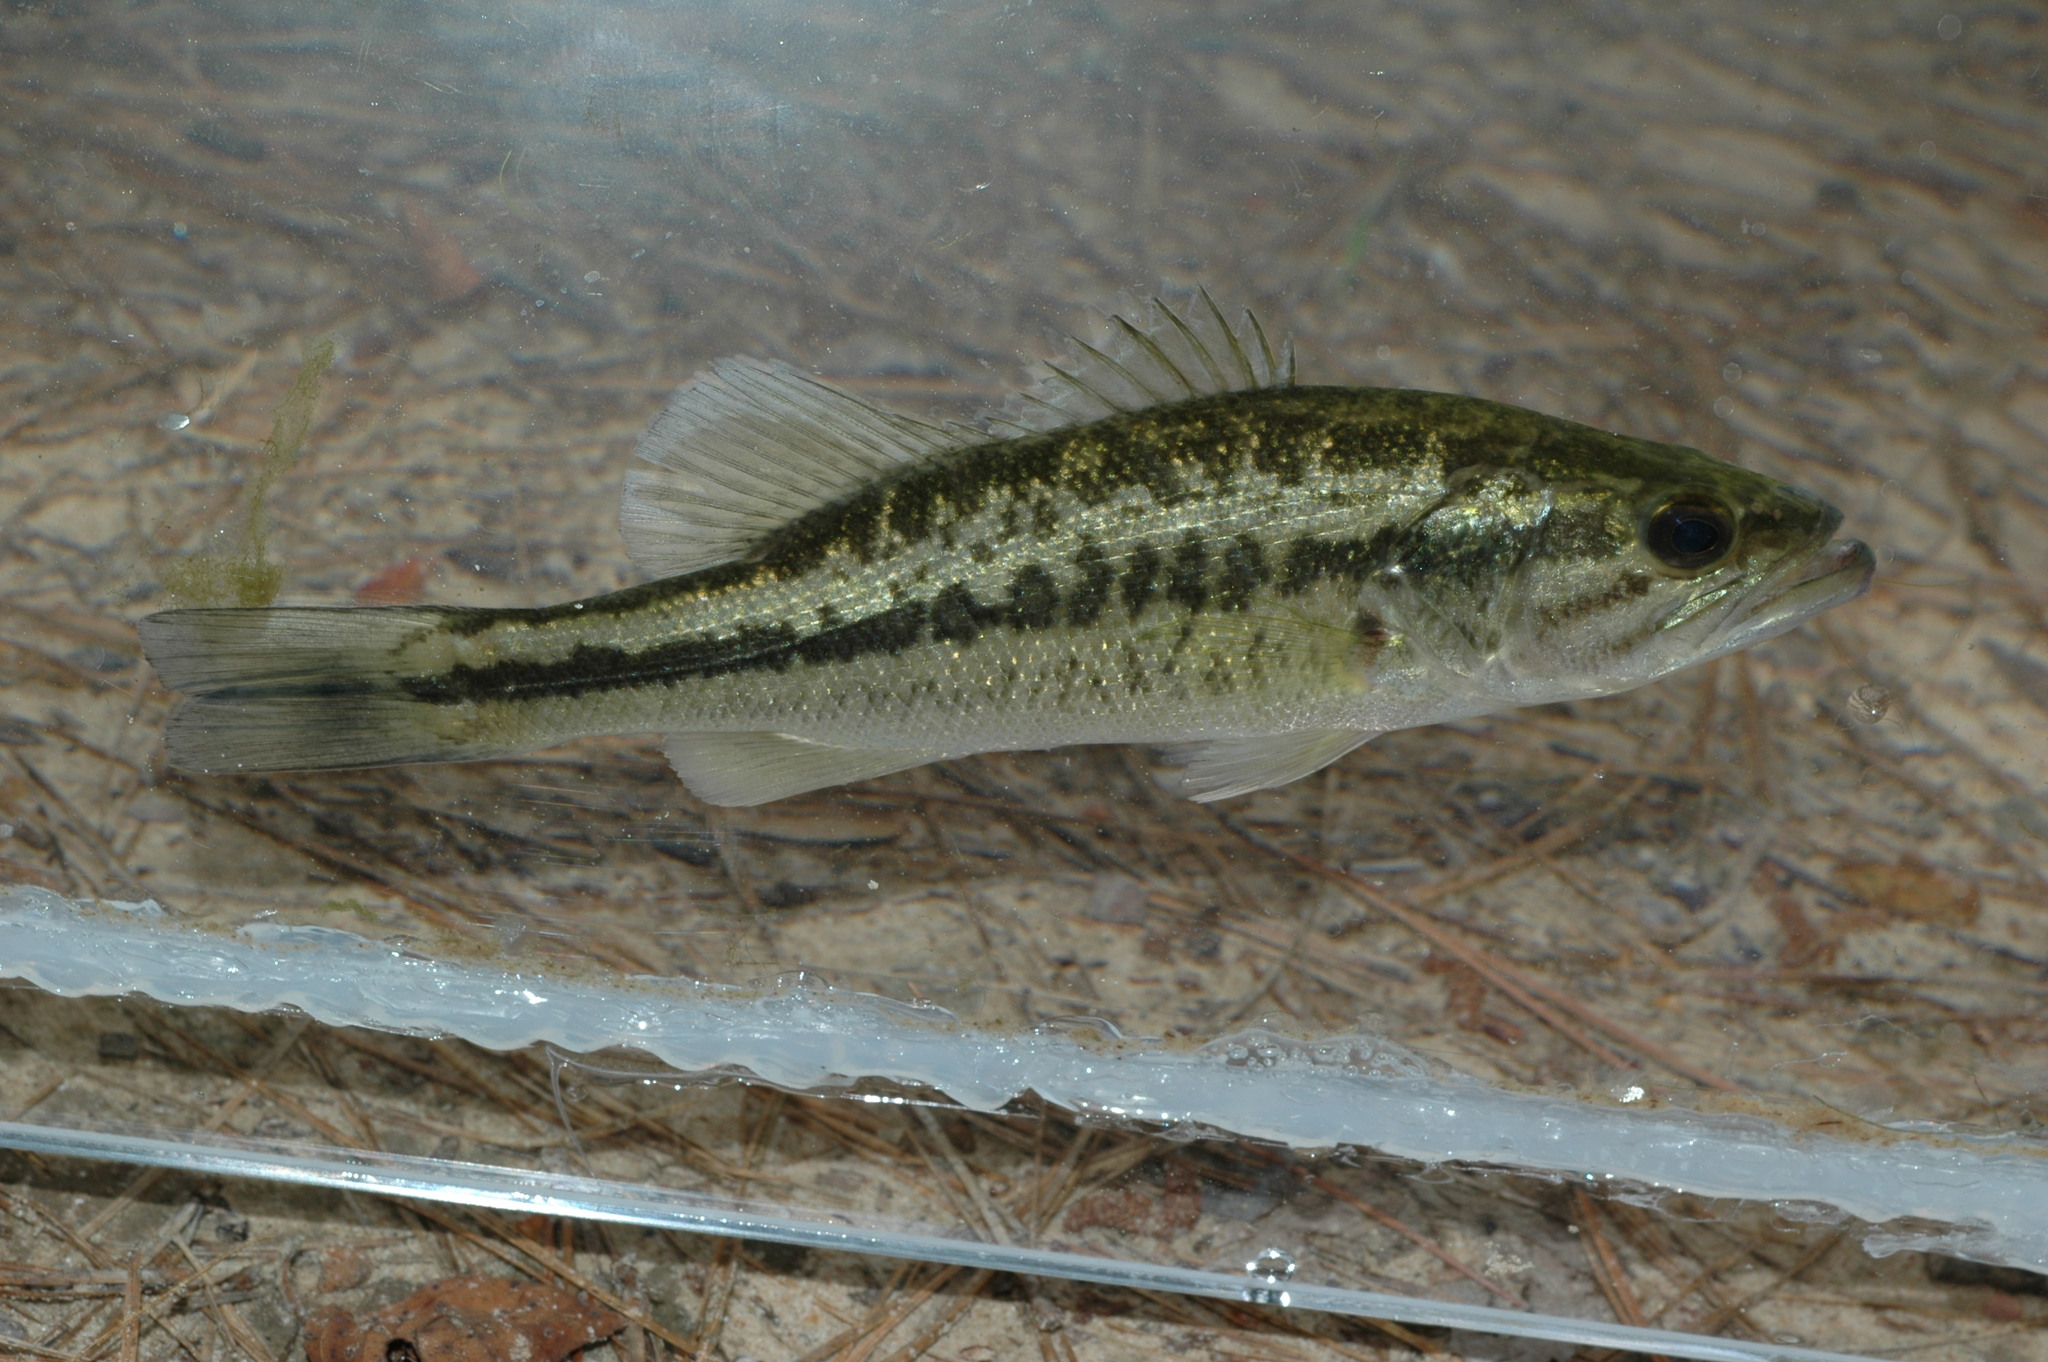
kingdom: Animalia
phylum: Chordata
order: Perciformes
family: Centrarchidae
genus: Micropterus
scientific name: Micropterus
